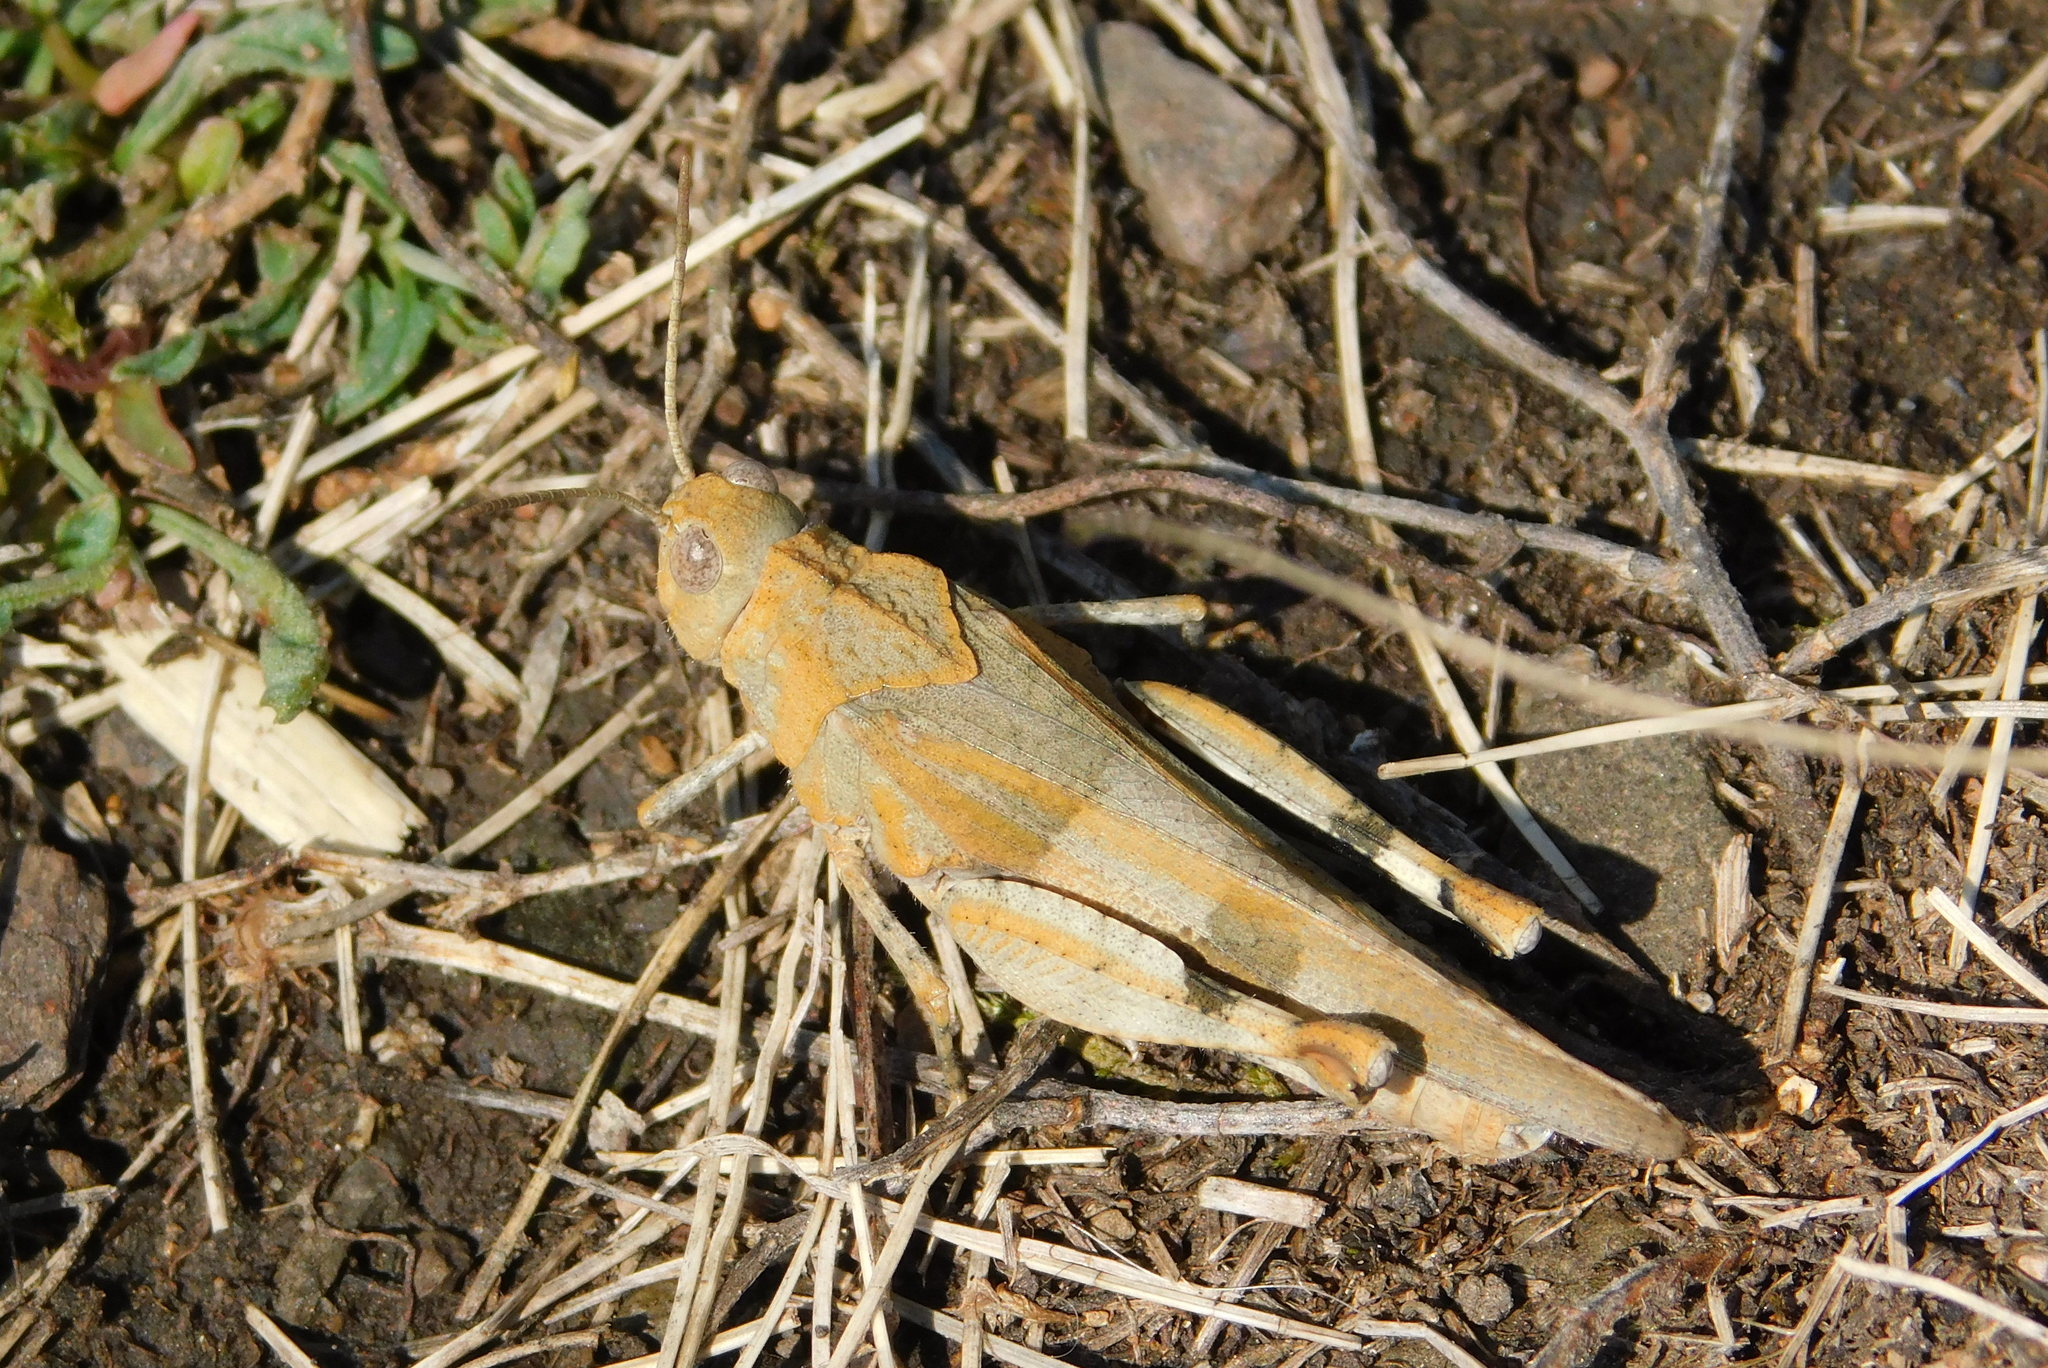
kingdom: Animalia
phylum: Arthropoda
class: Insecta
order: Orthoptera
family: Acrididae
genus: Oedipoda
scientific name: Oedipoda caerulescens
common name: Blue-winged grasshopper
